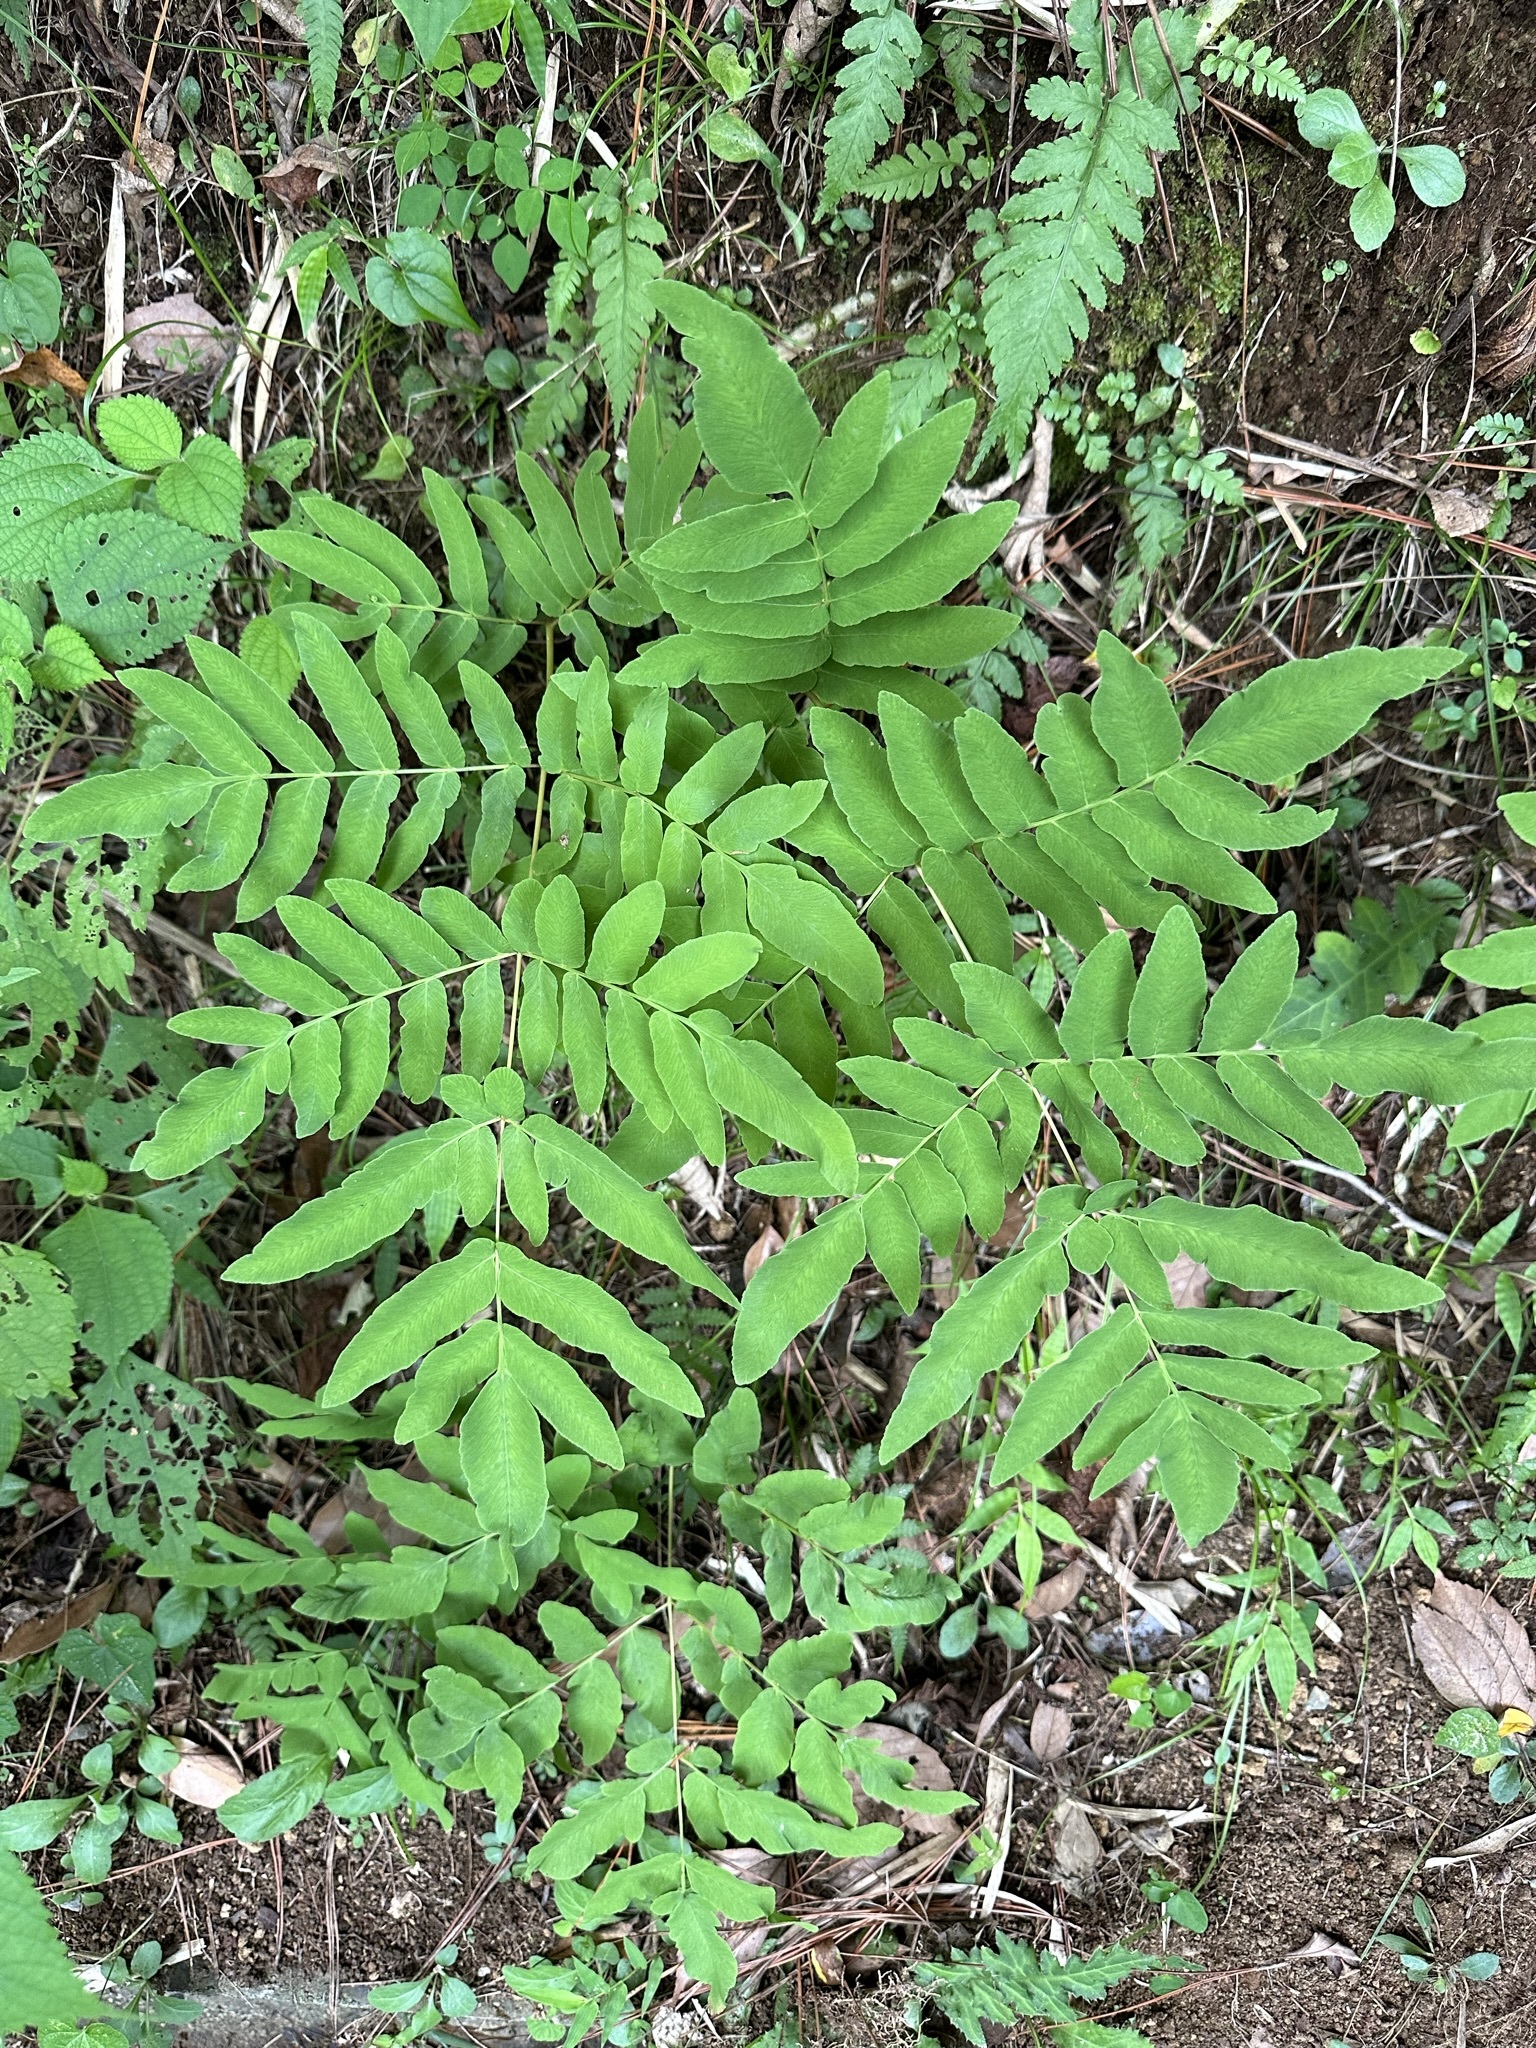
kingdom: Plantae
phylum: Tracheophyta
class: Polypodiopsida
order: Osmundales
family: Osmundaceae
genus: Osmunda
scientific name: Osmunda japonica
